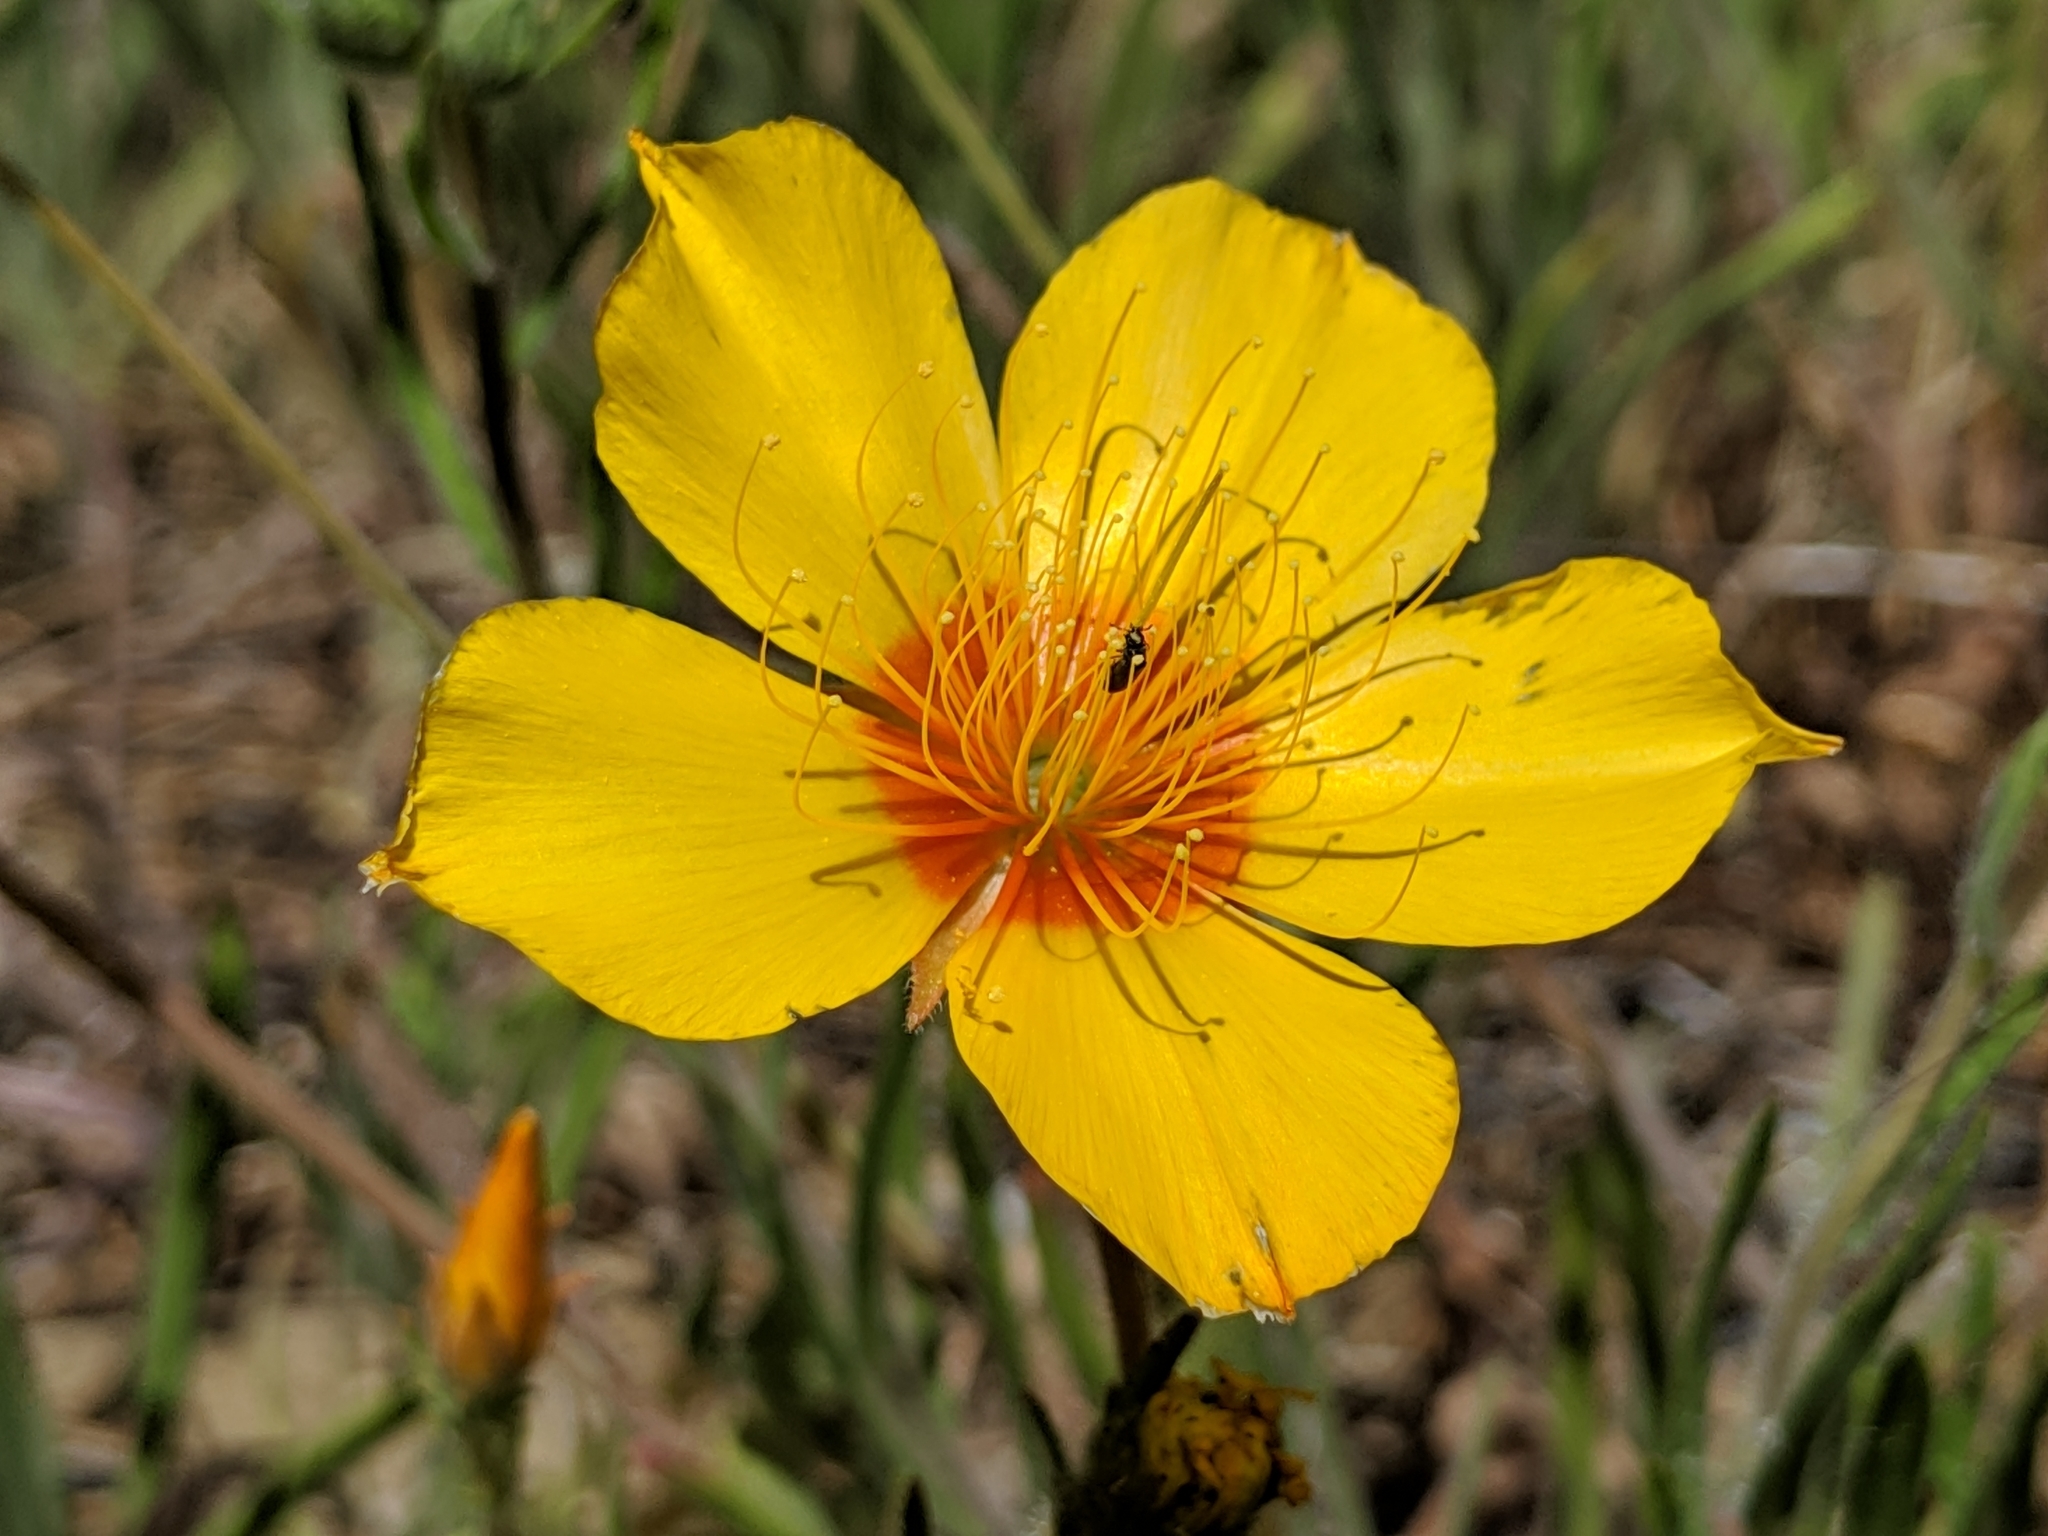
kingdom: Plantae
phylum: Tracheophyta
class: Magnoliopsida
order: Cornales
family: Loasaceae
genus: Mentzelia
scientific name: Mentzelia lindleyi
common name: Golden bartonia
